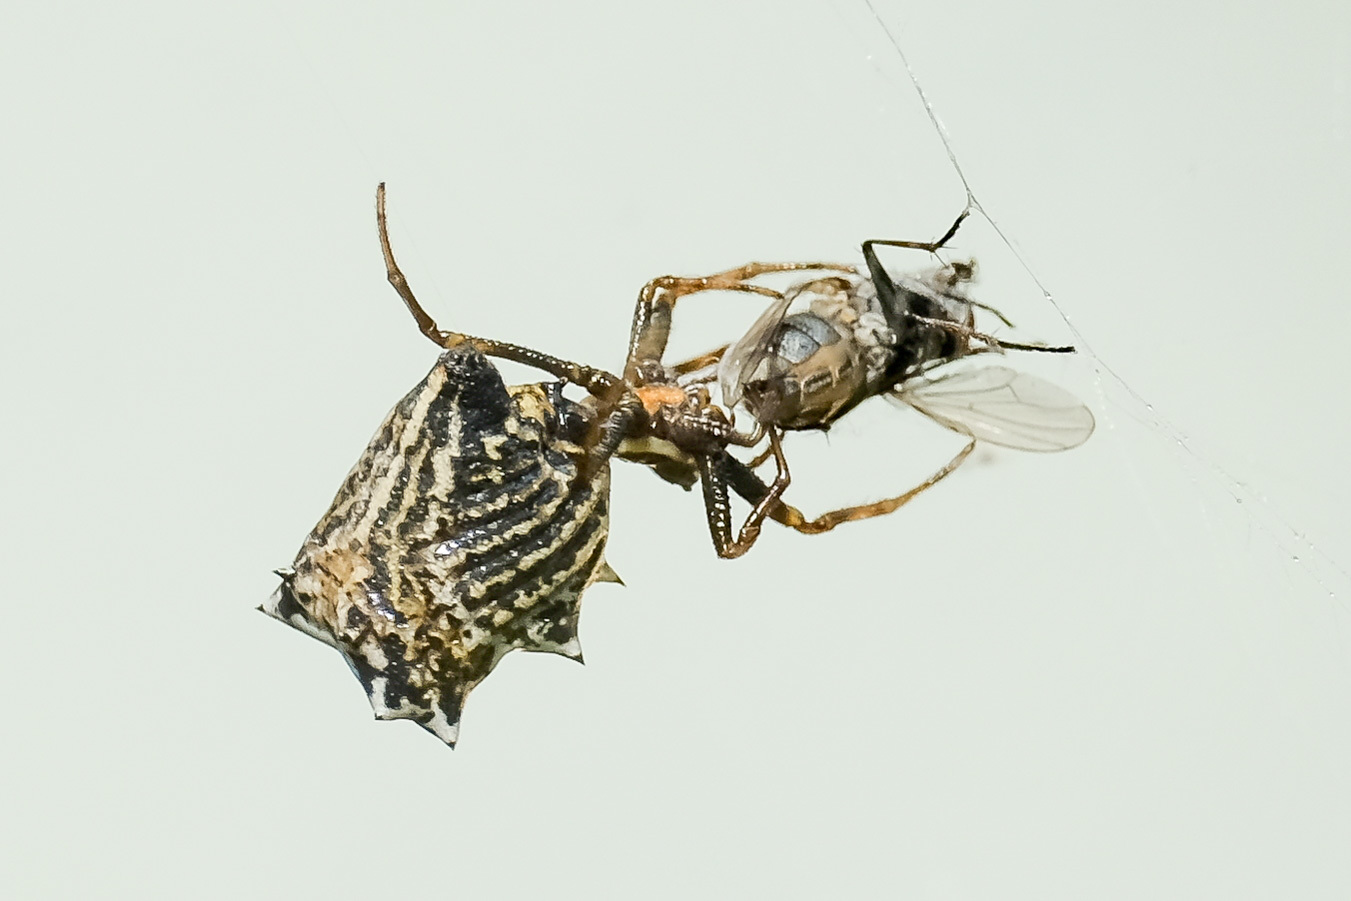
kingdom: Animalia
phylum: Arthropoda
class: Arachnida
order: Araneae
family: Araneidae
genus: Micrathena
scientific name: Micrathena gracilis
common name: Orb weavers
